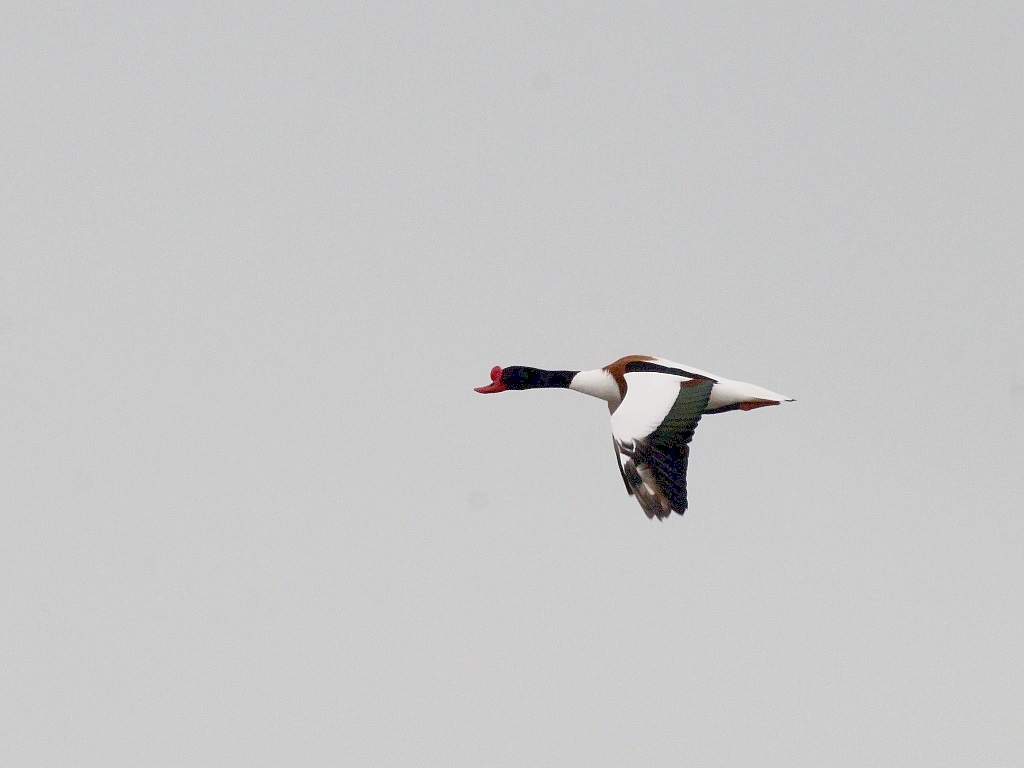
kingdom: Animalia
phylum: Chordata
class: Aves
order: Anseriformes
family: Anatidae
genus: Tadorna
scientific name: Tadorna tadorna
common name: Common shelduck
